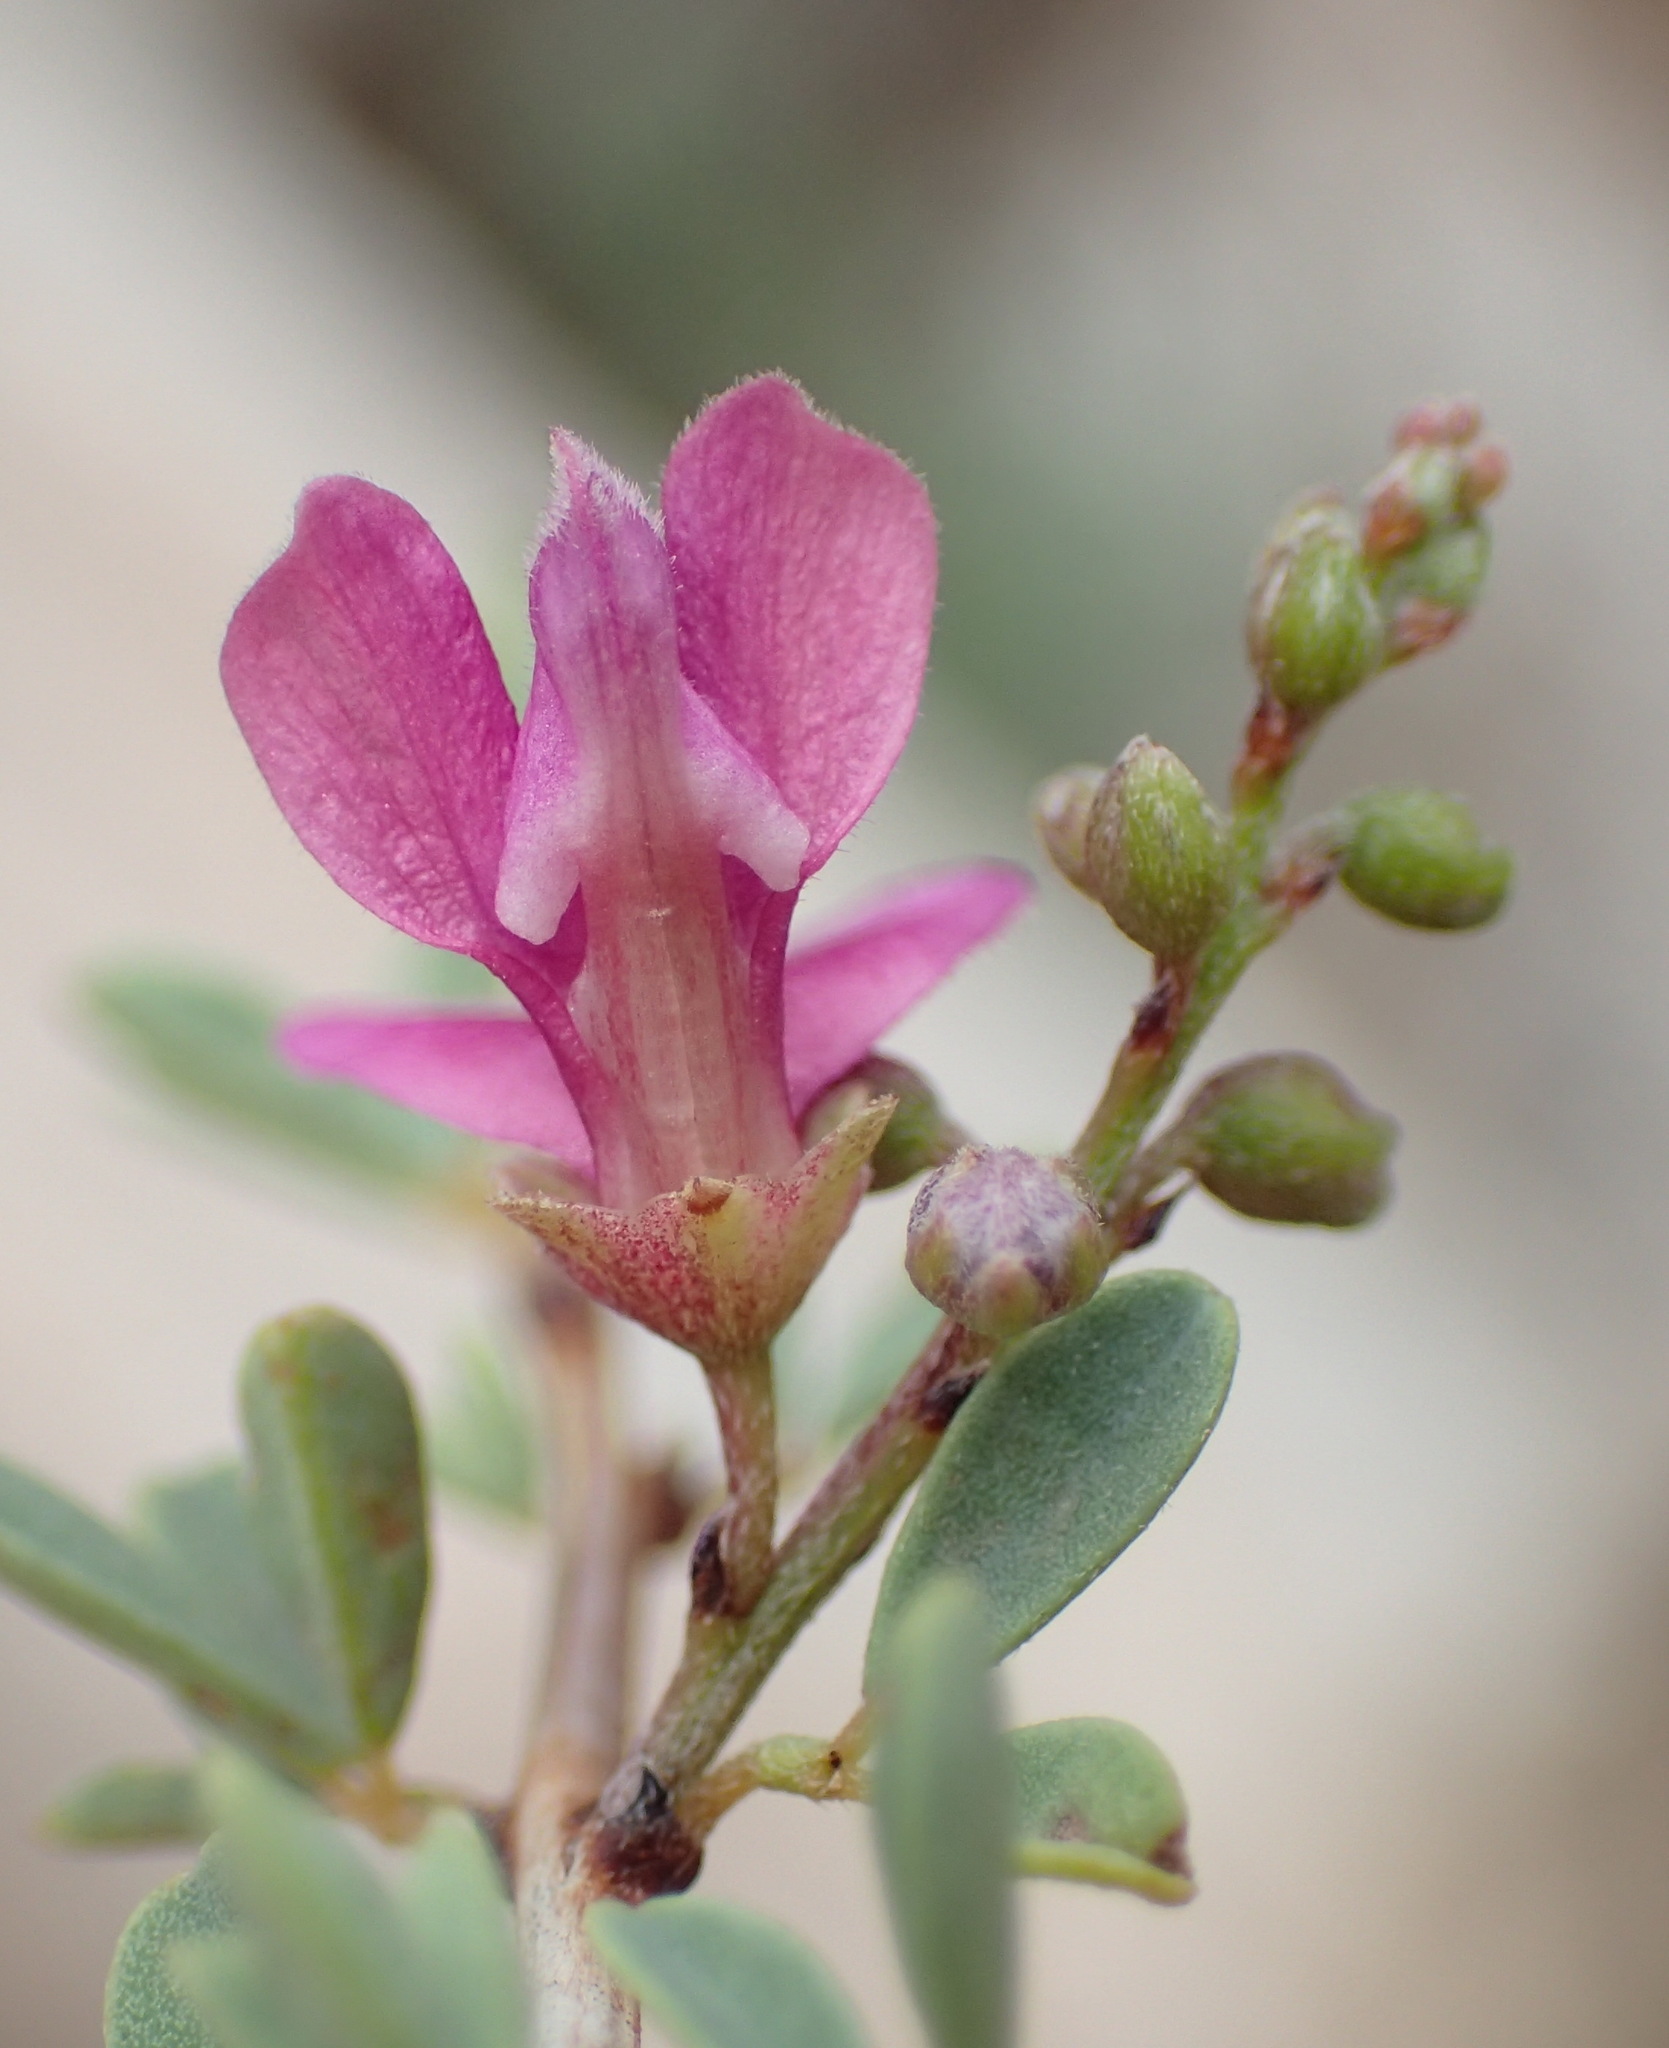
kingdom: Plantae
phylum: Tracheophyta
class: Magnoliopsida
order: Fabales
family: Fabaceae
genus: Indigofera
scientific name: Indigofera denudata
